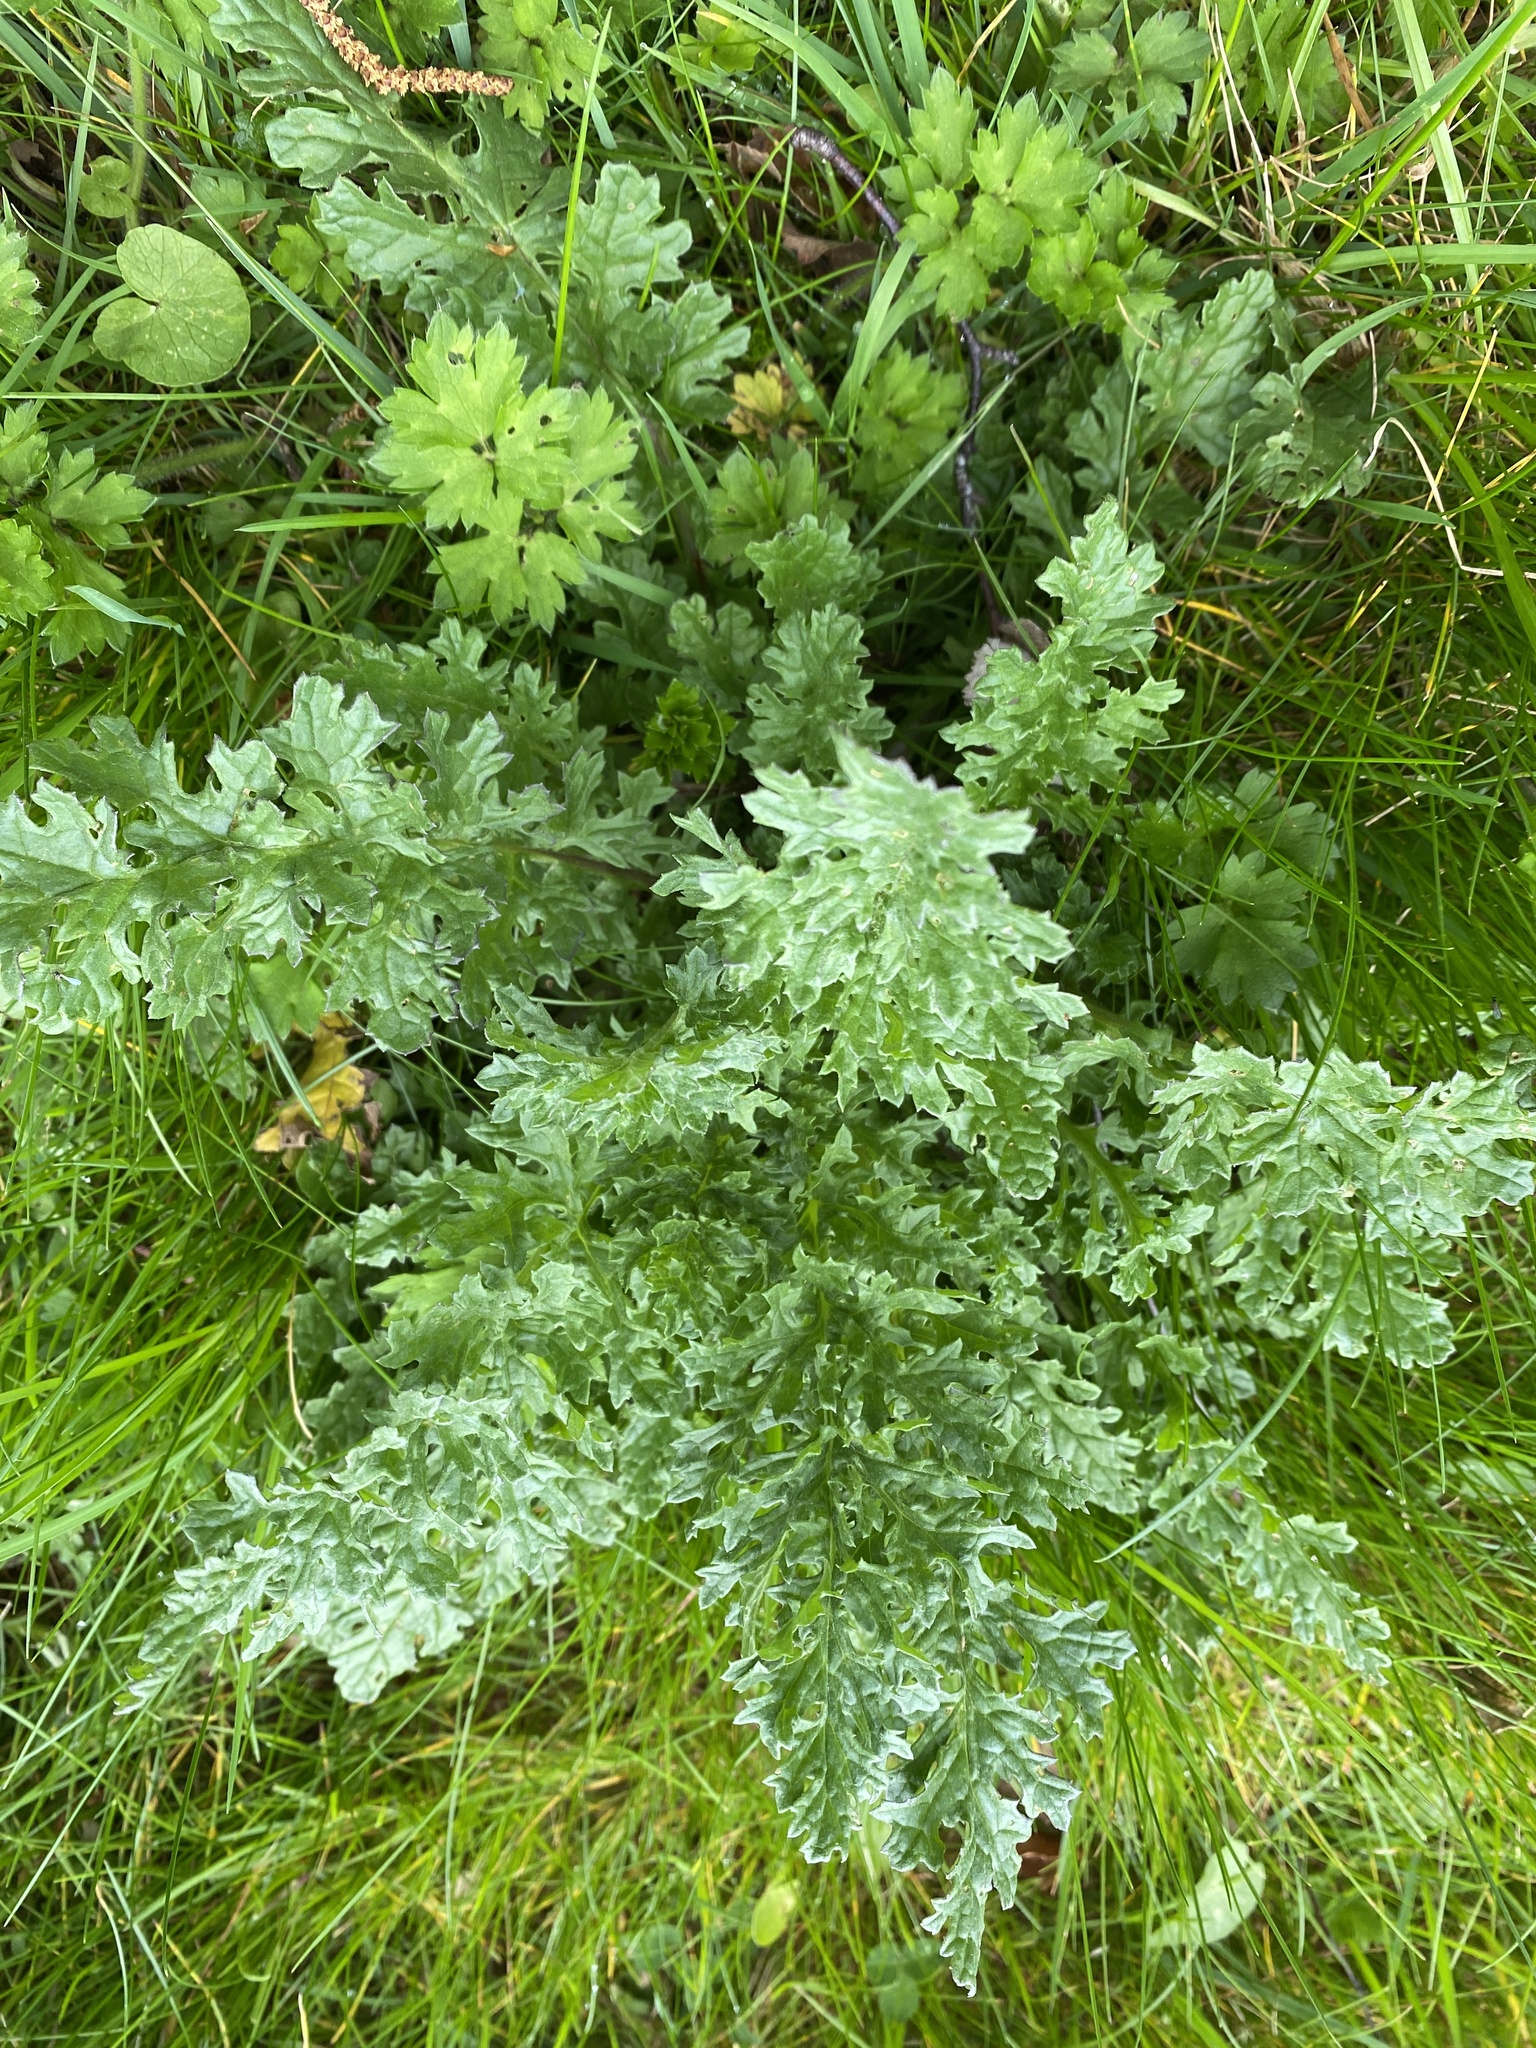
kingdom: Plantae
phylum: Tracheophyta
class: Magnoliopsida
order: Asterales
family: Asteraceae
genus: Jacobaea
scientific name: Jacobaea vulgaris
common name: Stinking willie
